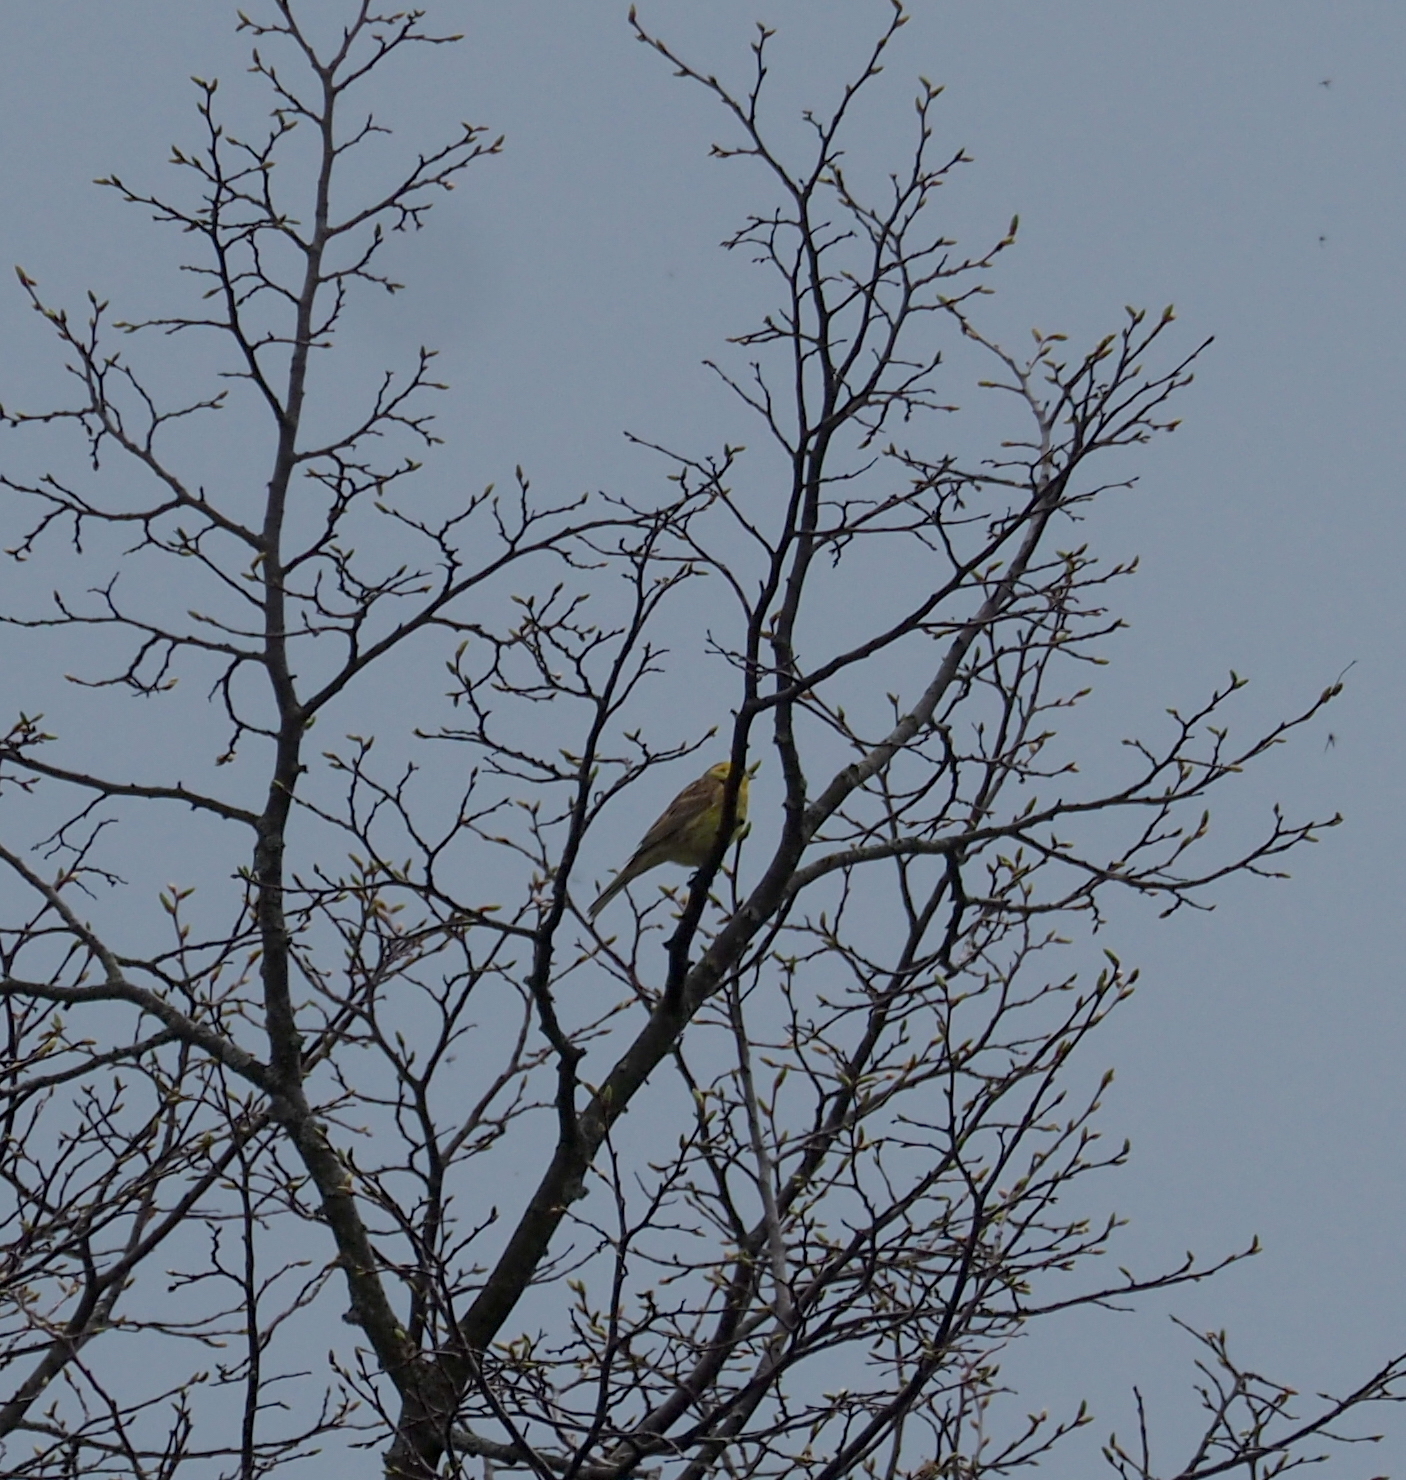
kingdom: Animalia
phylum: Chordata
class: Aves
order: Passeriformes
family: Emberizidae
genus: Emberiza
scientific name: Emberiza citrinella
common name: Yellowhammer
